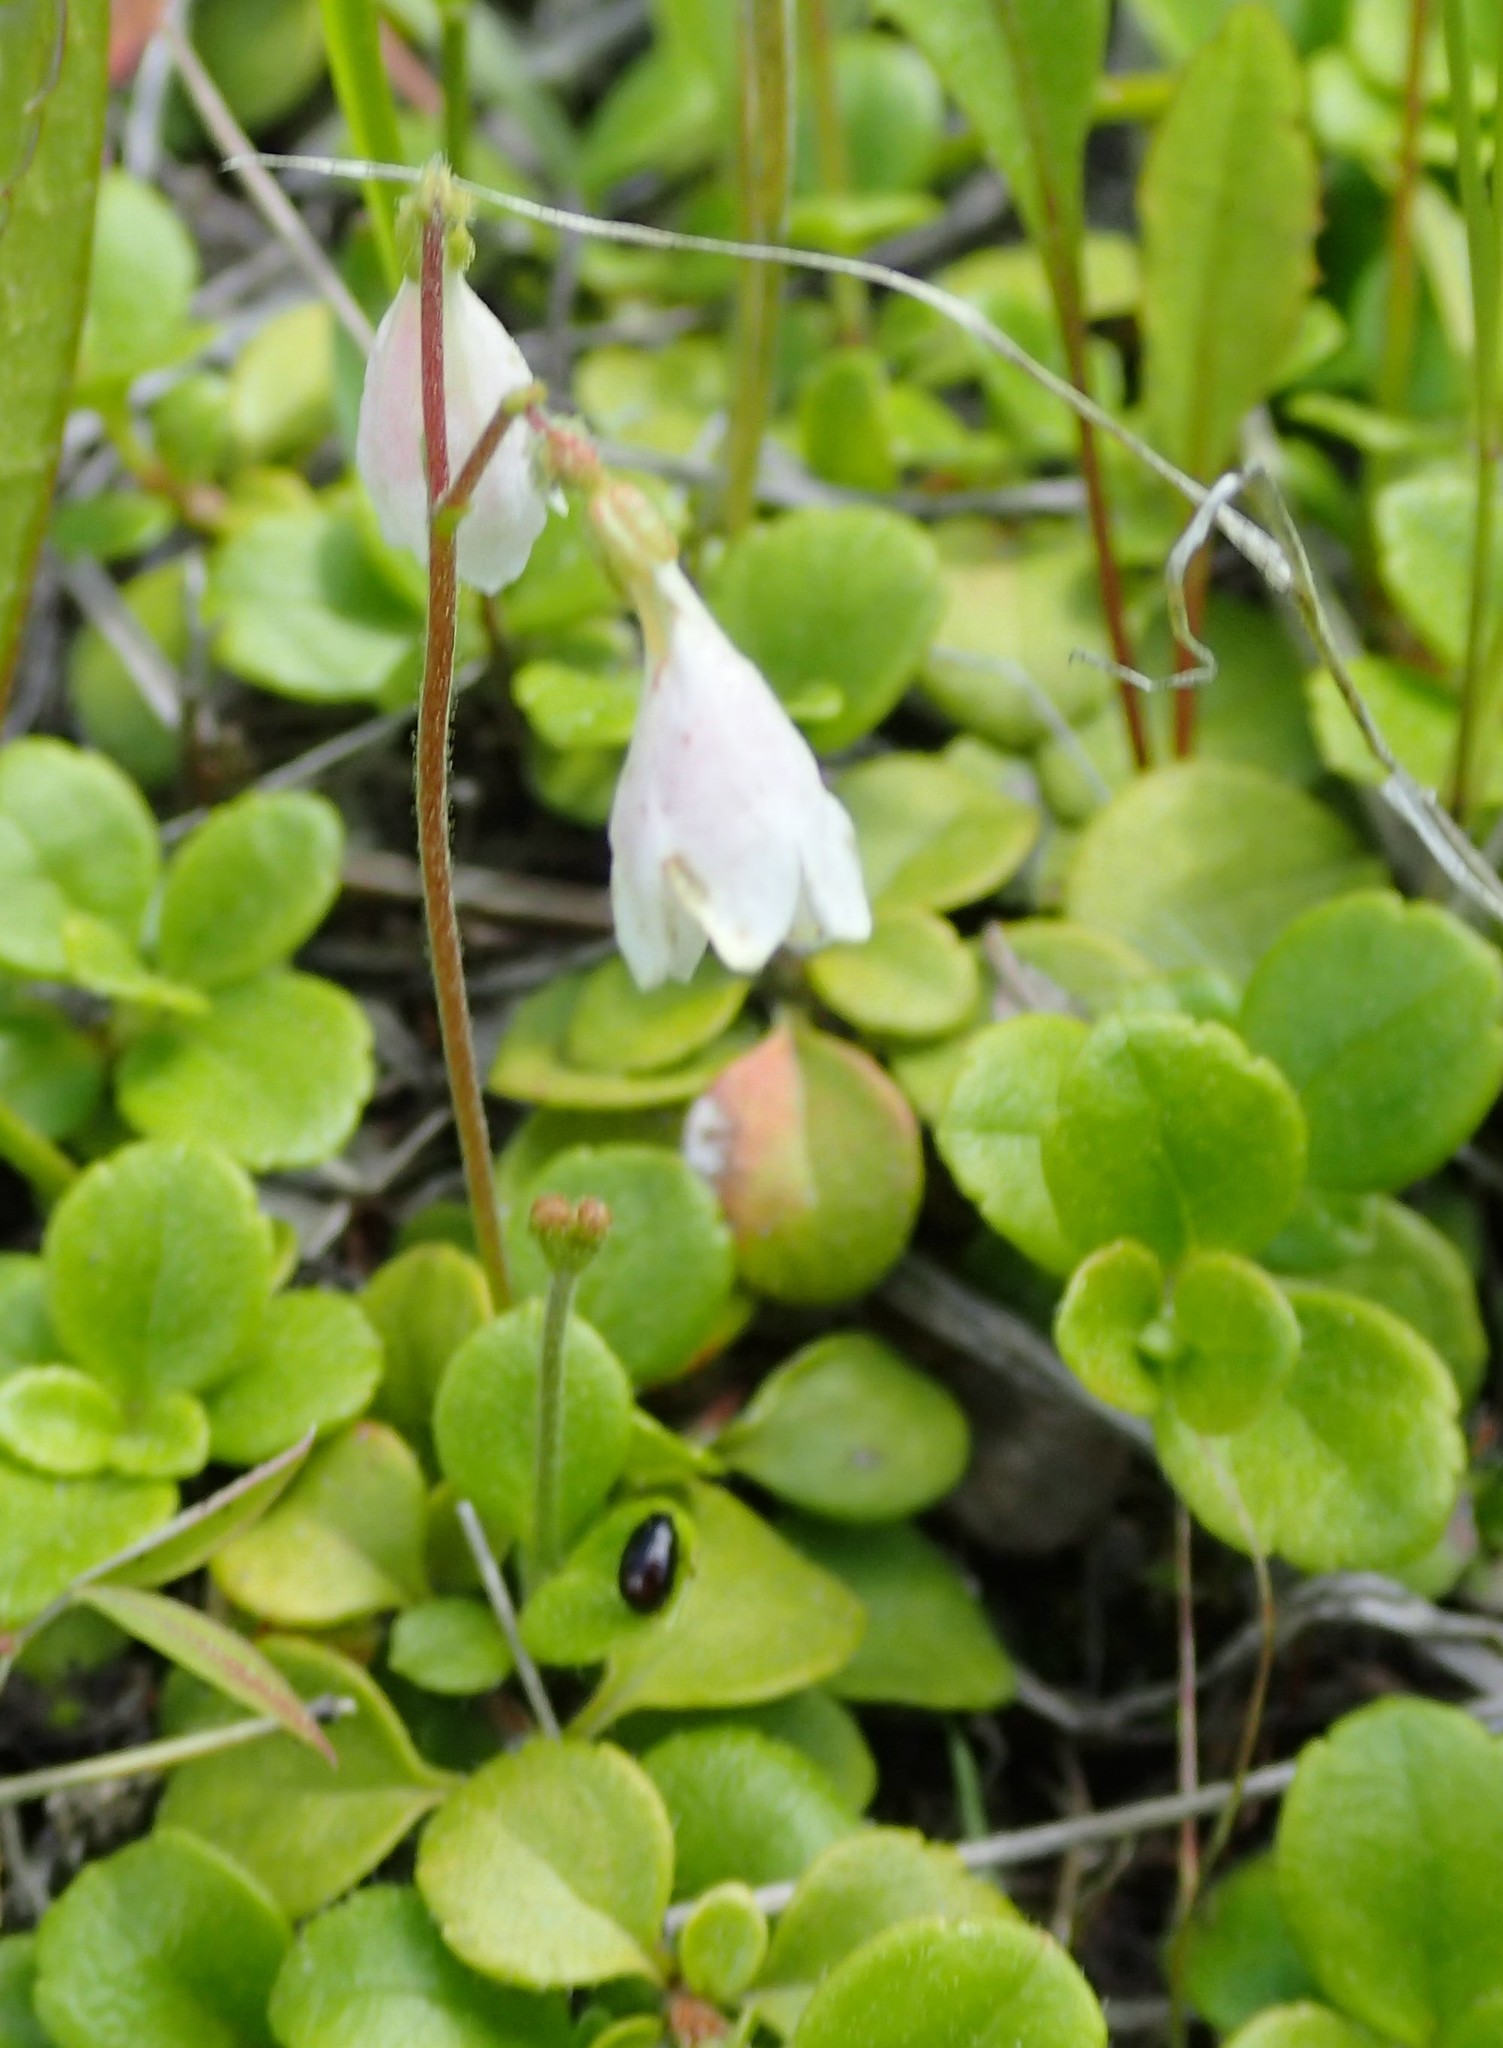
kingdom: Plantae
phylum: Tracheophyta
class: Magnoliopsida
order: Dipsacales
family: Caprifoliaceae
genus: Linnaea
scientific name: Linnaea borealis
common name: Twinflower
